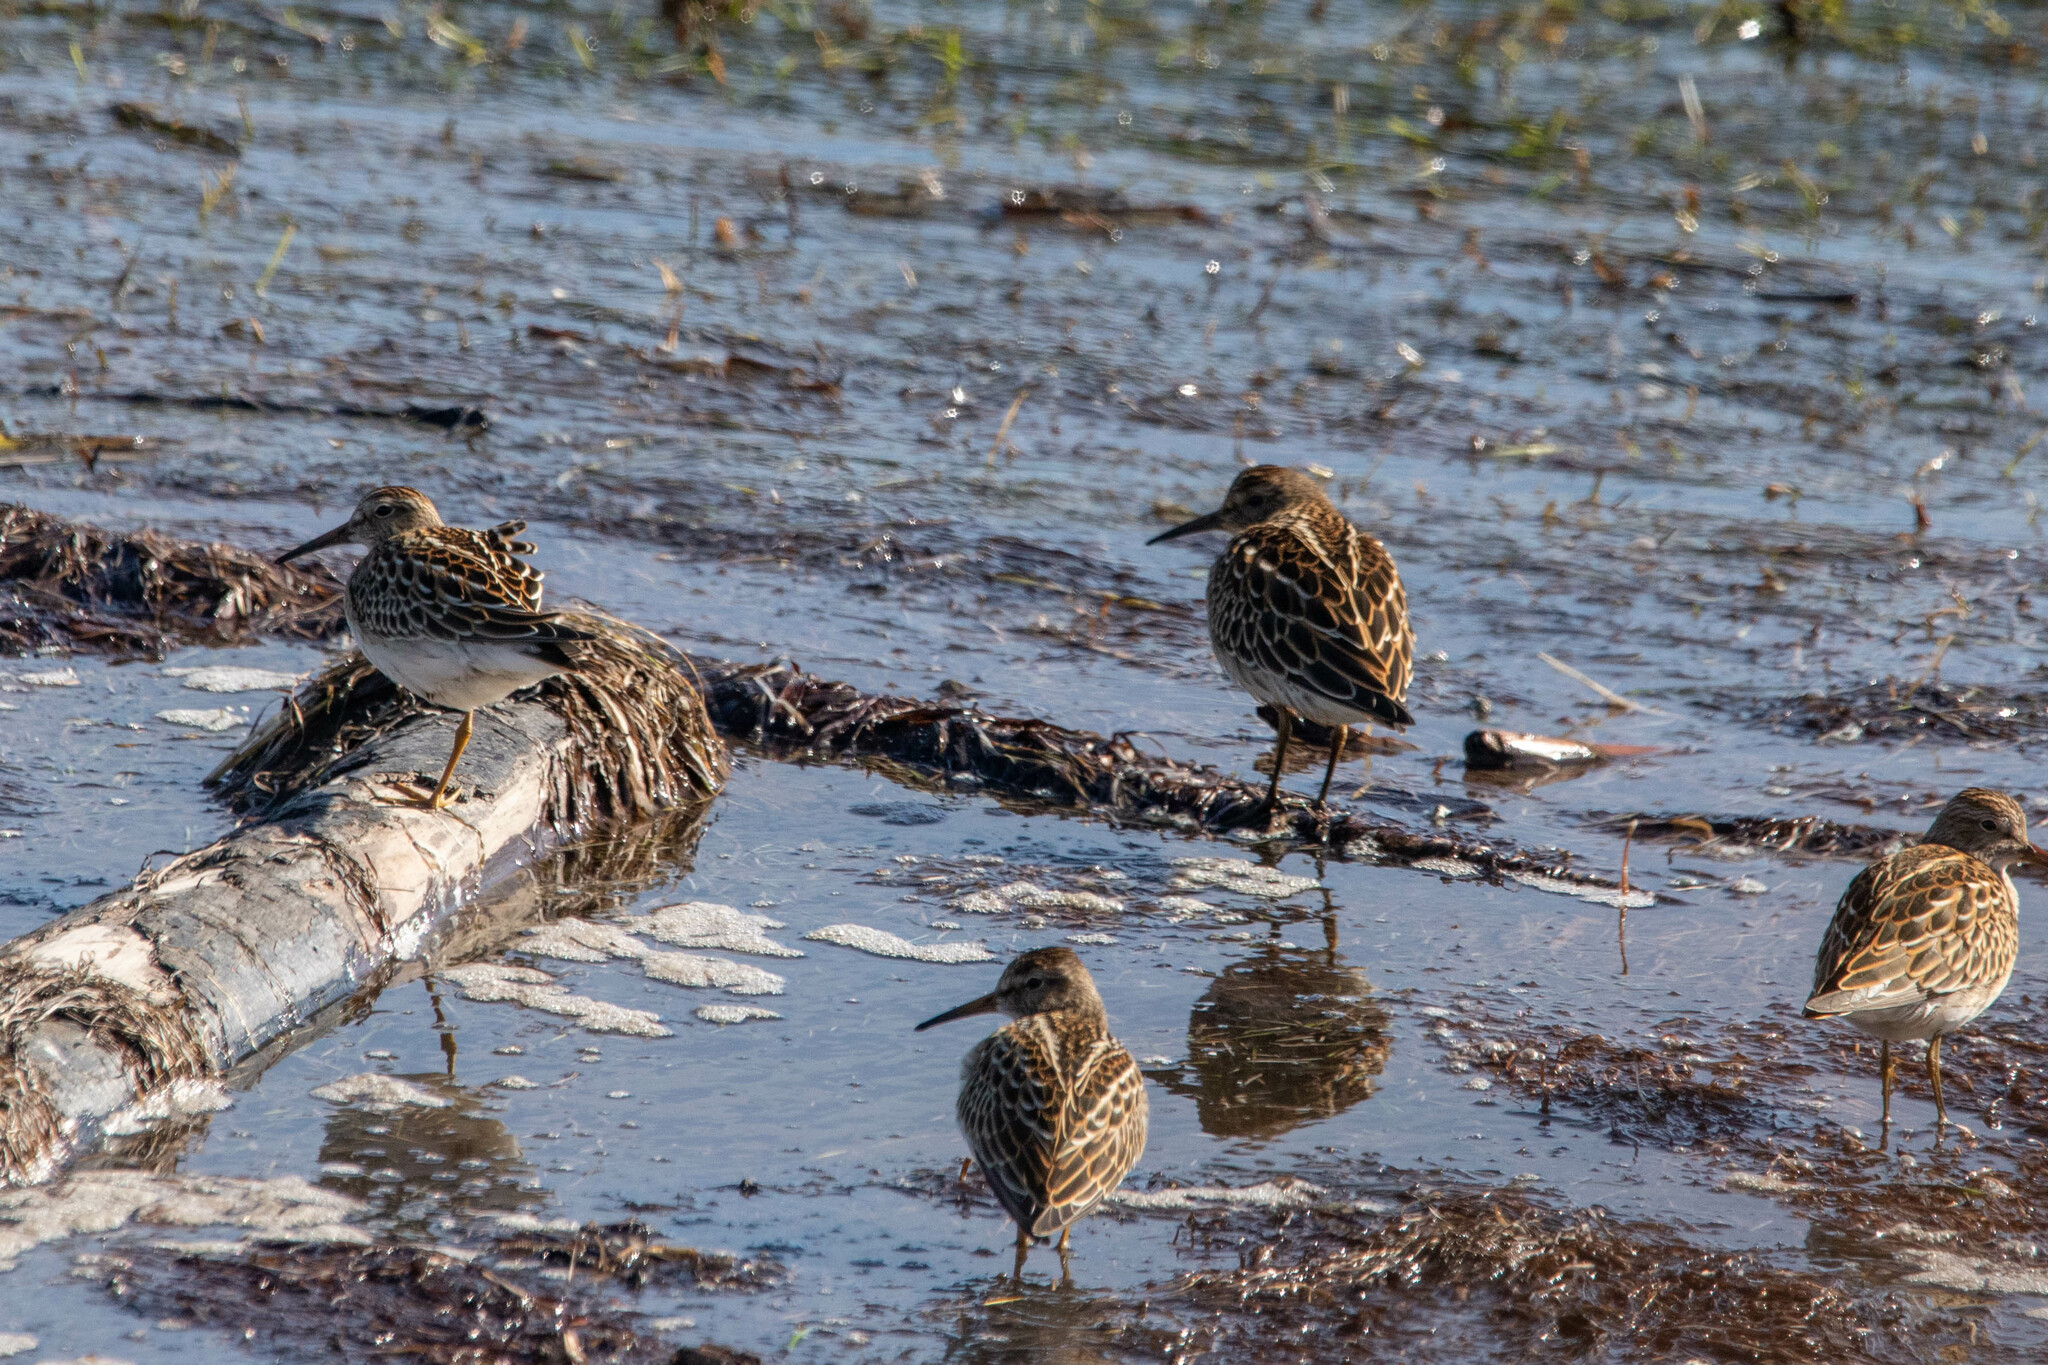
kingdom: Animalia
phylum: Chordata
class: Aves
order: Charadriiformes
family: Scolopacidae
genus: Calidris
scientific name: Calidris melanotos
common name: Pectoral sandpiper
